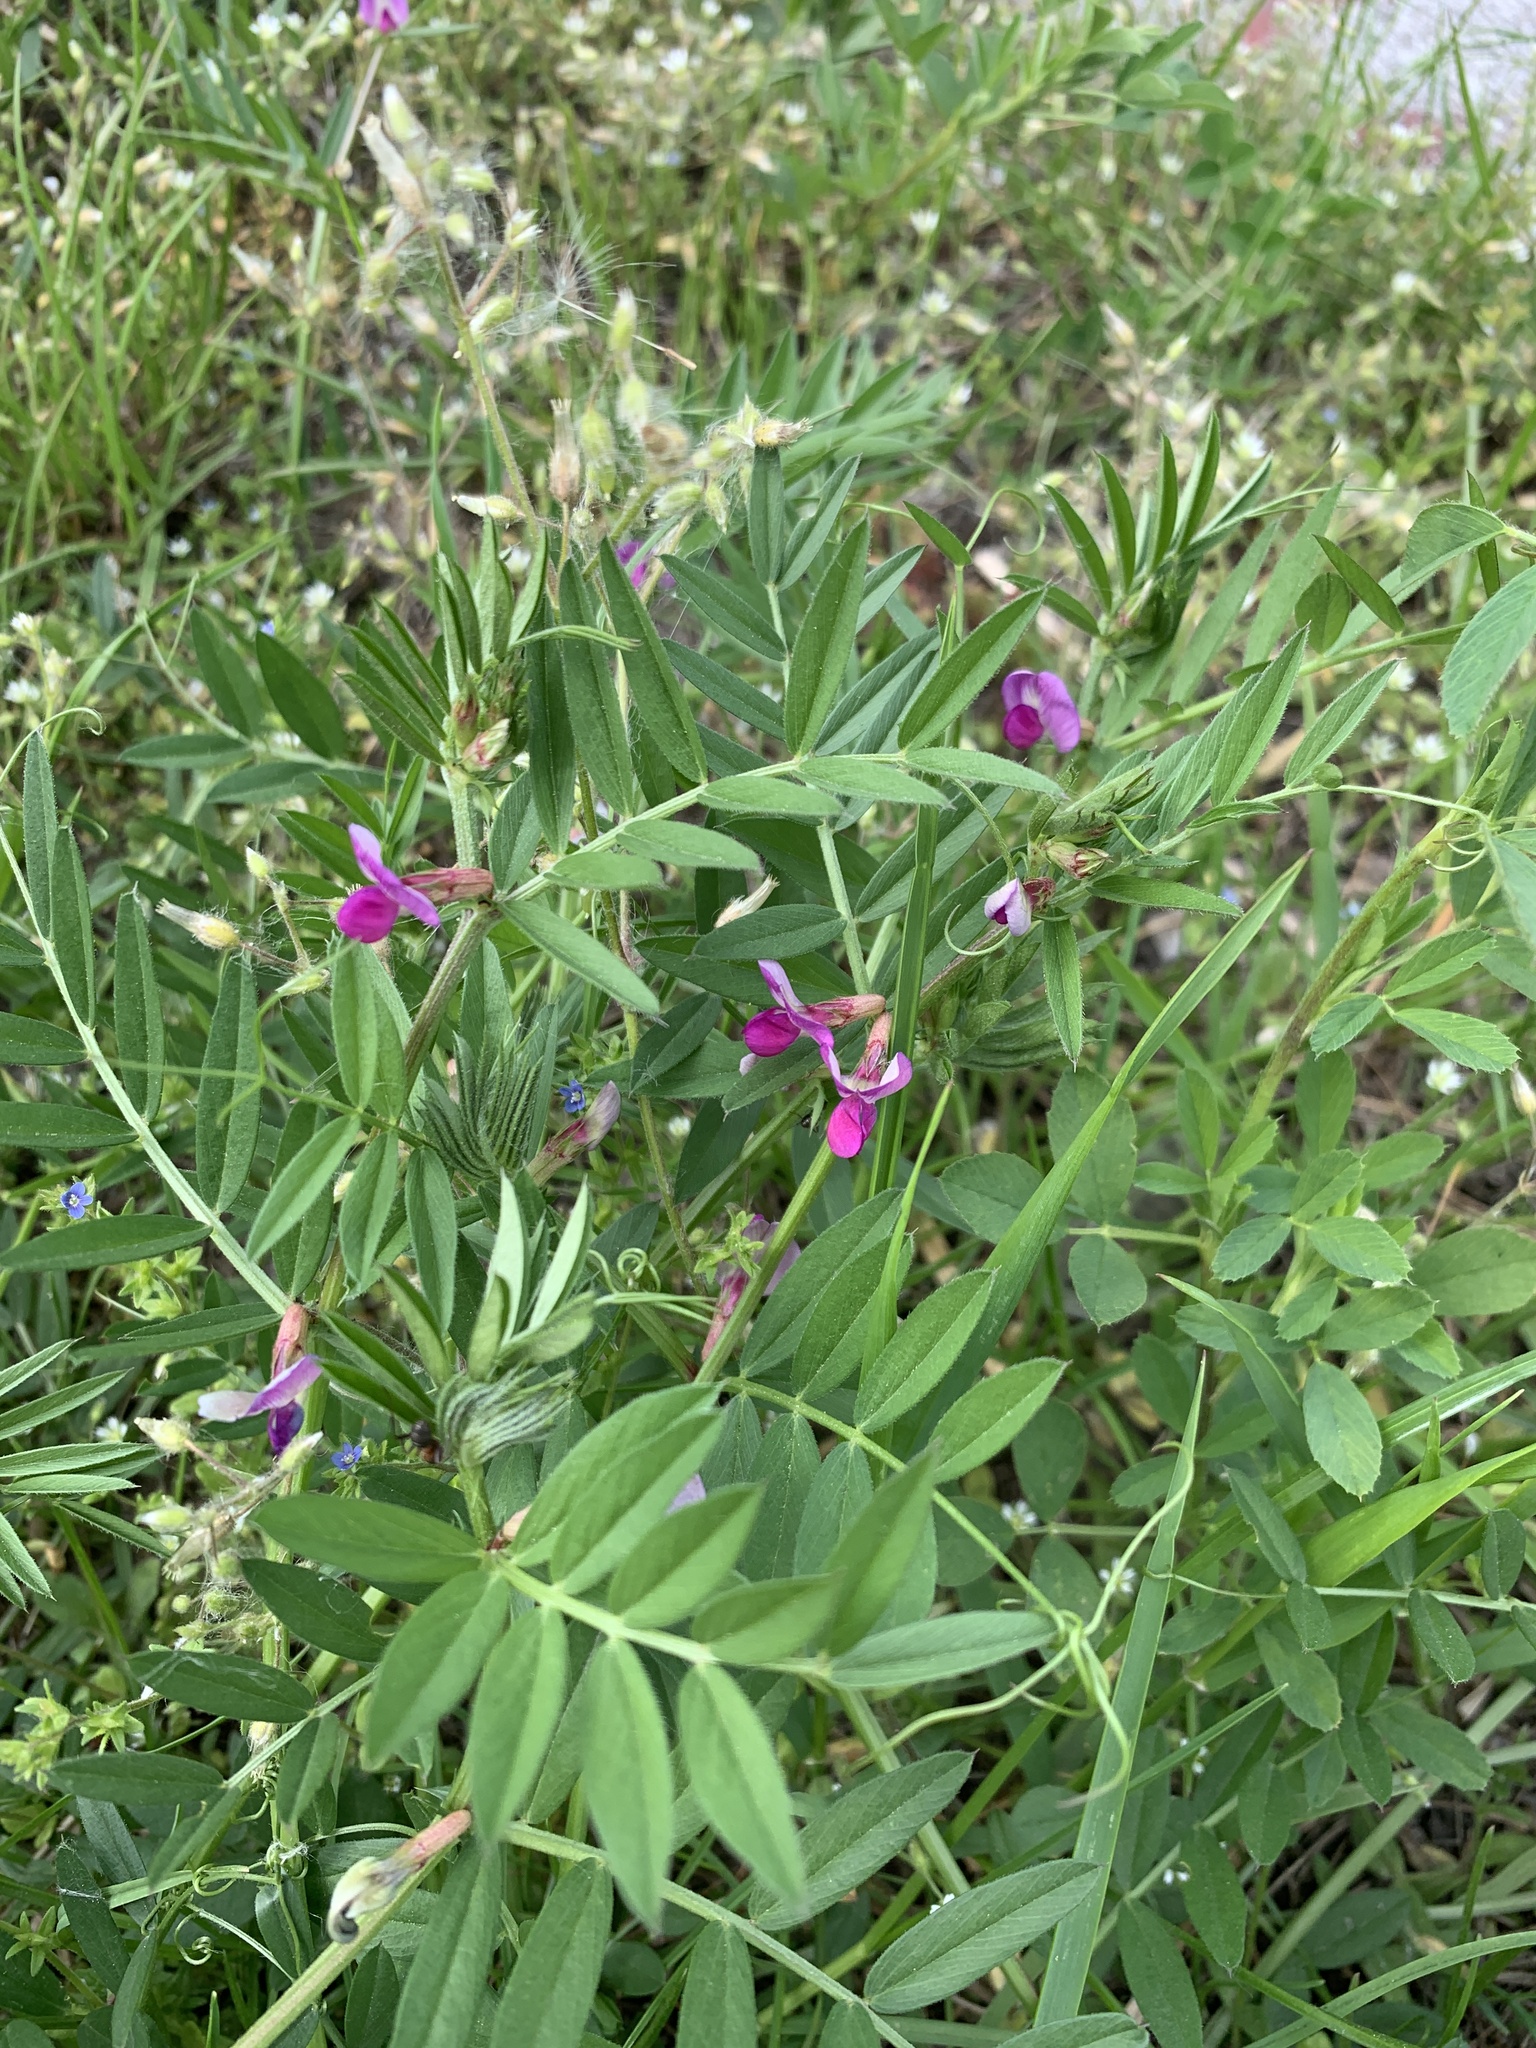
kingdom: Plantae
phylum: Tracheophyta
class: Magnoliopsida
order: Fabales
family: Fabaceae
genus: Vicia
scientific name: Vicia sativa
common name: Garden vetch
